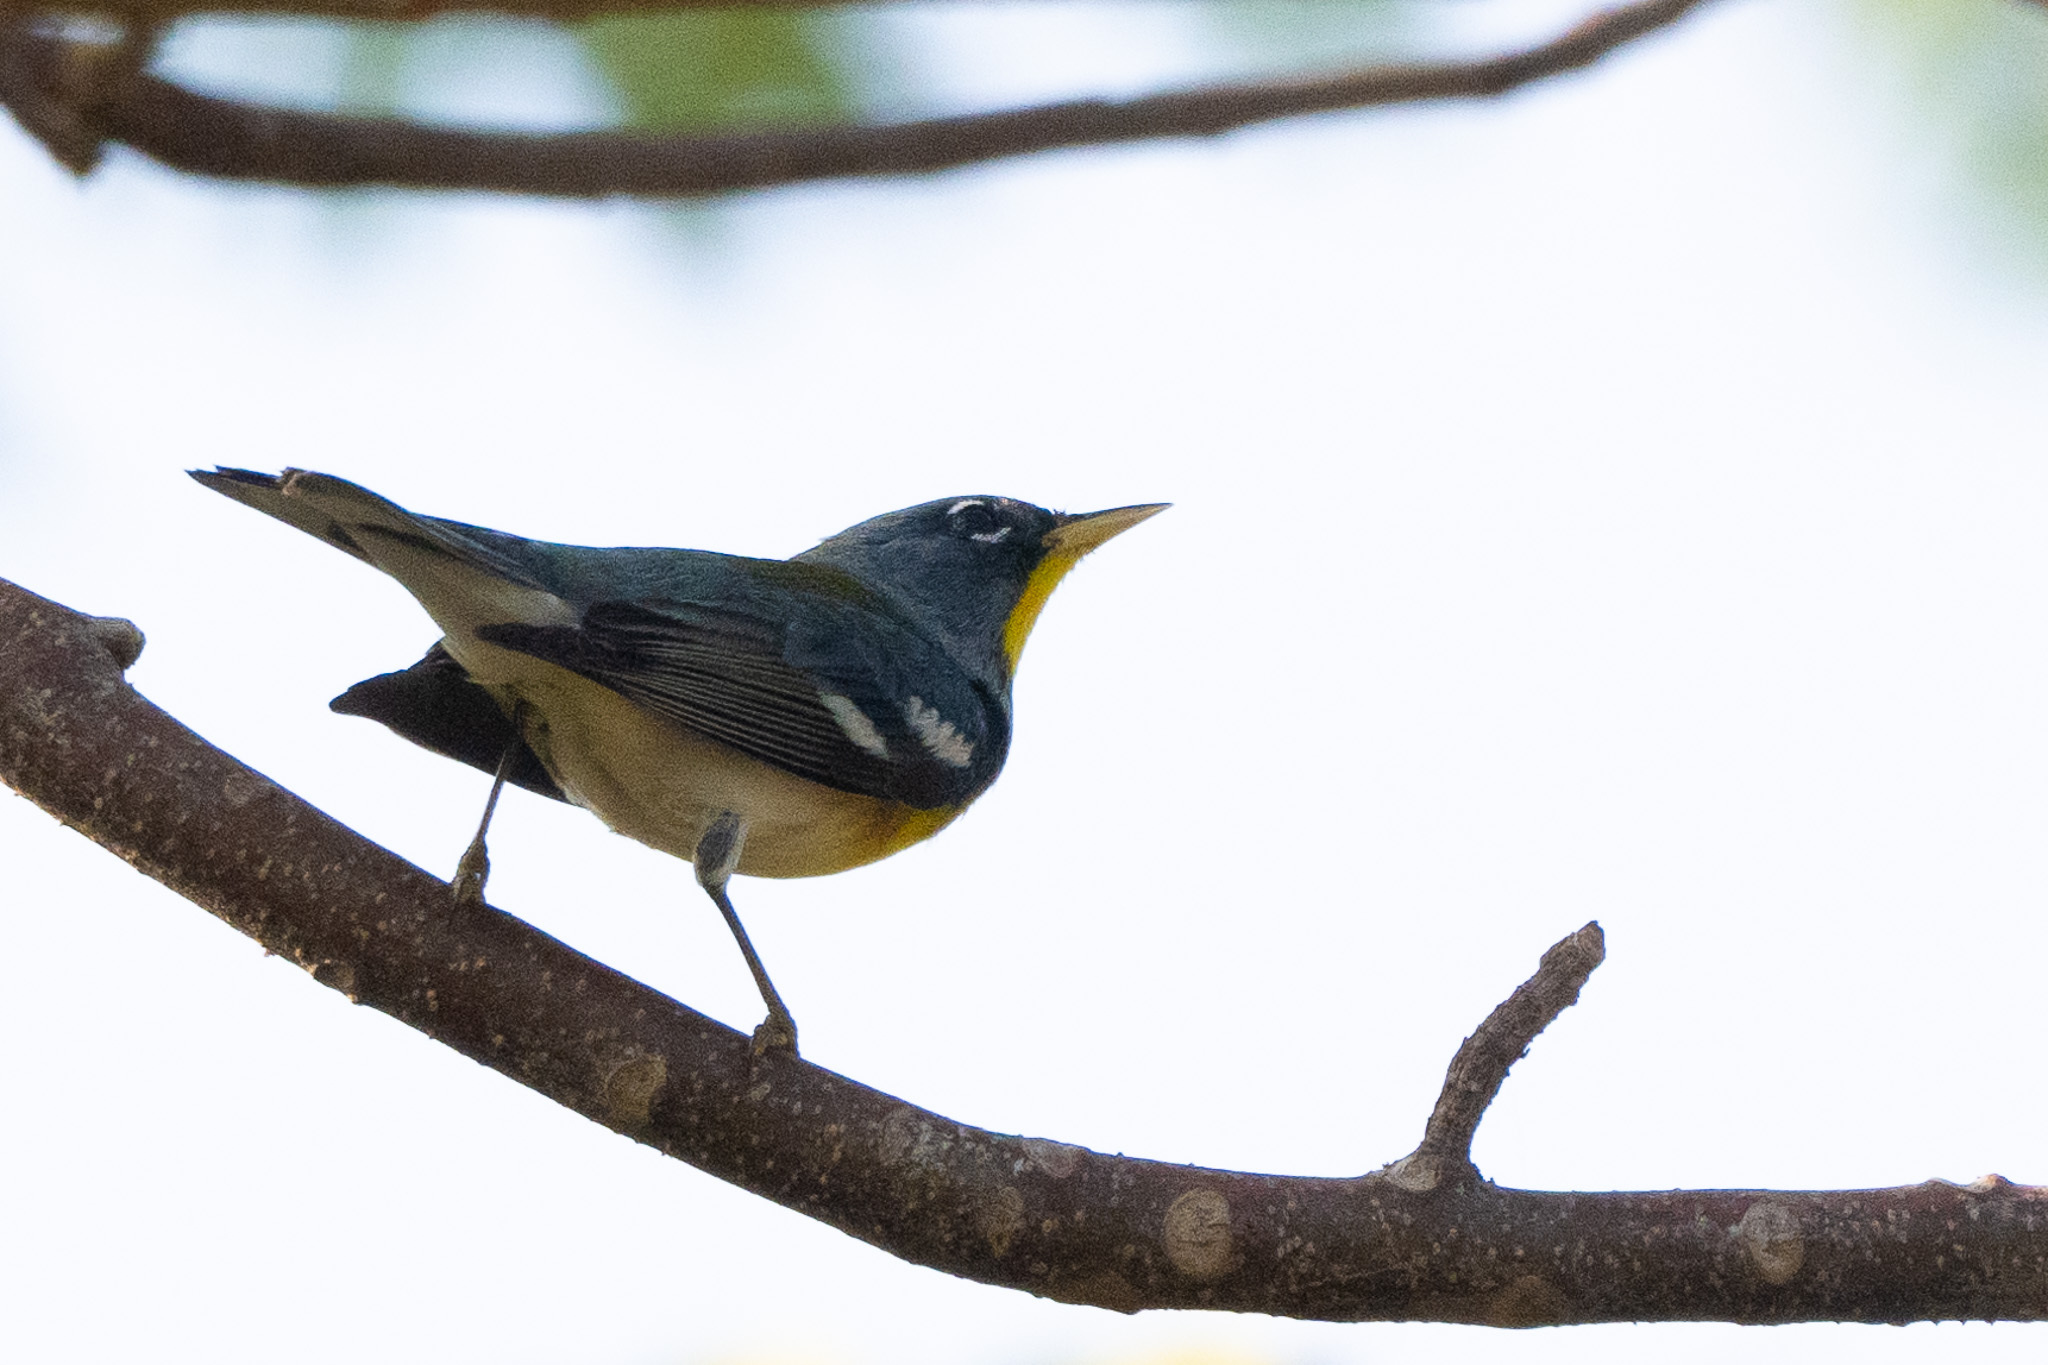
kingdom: Animalia
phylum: Chordata
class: Aves
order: Passeriformes
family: Parulidae
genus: Setophaga
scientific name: Setophaga americana
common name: Northern parula
